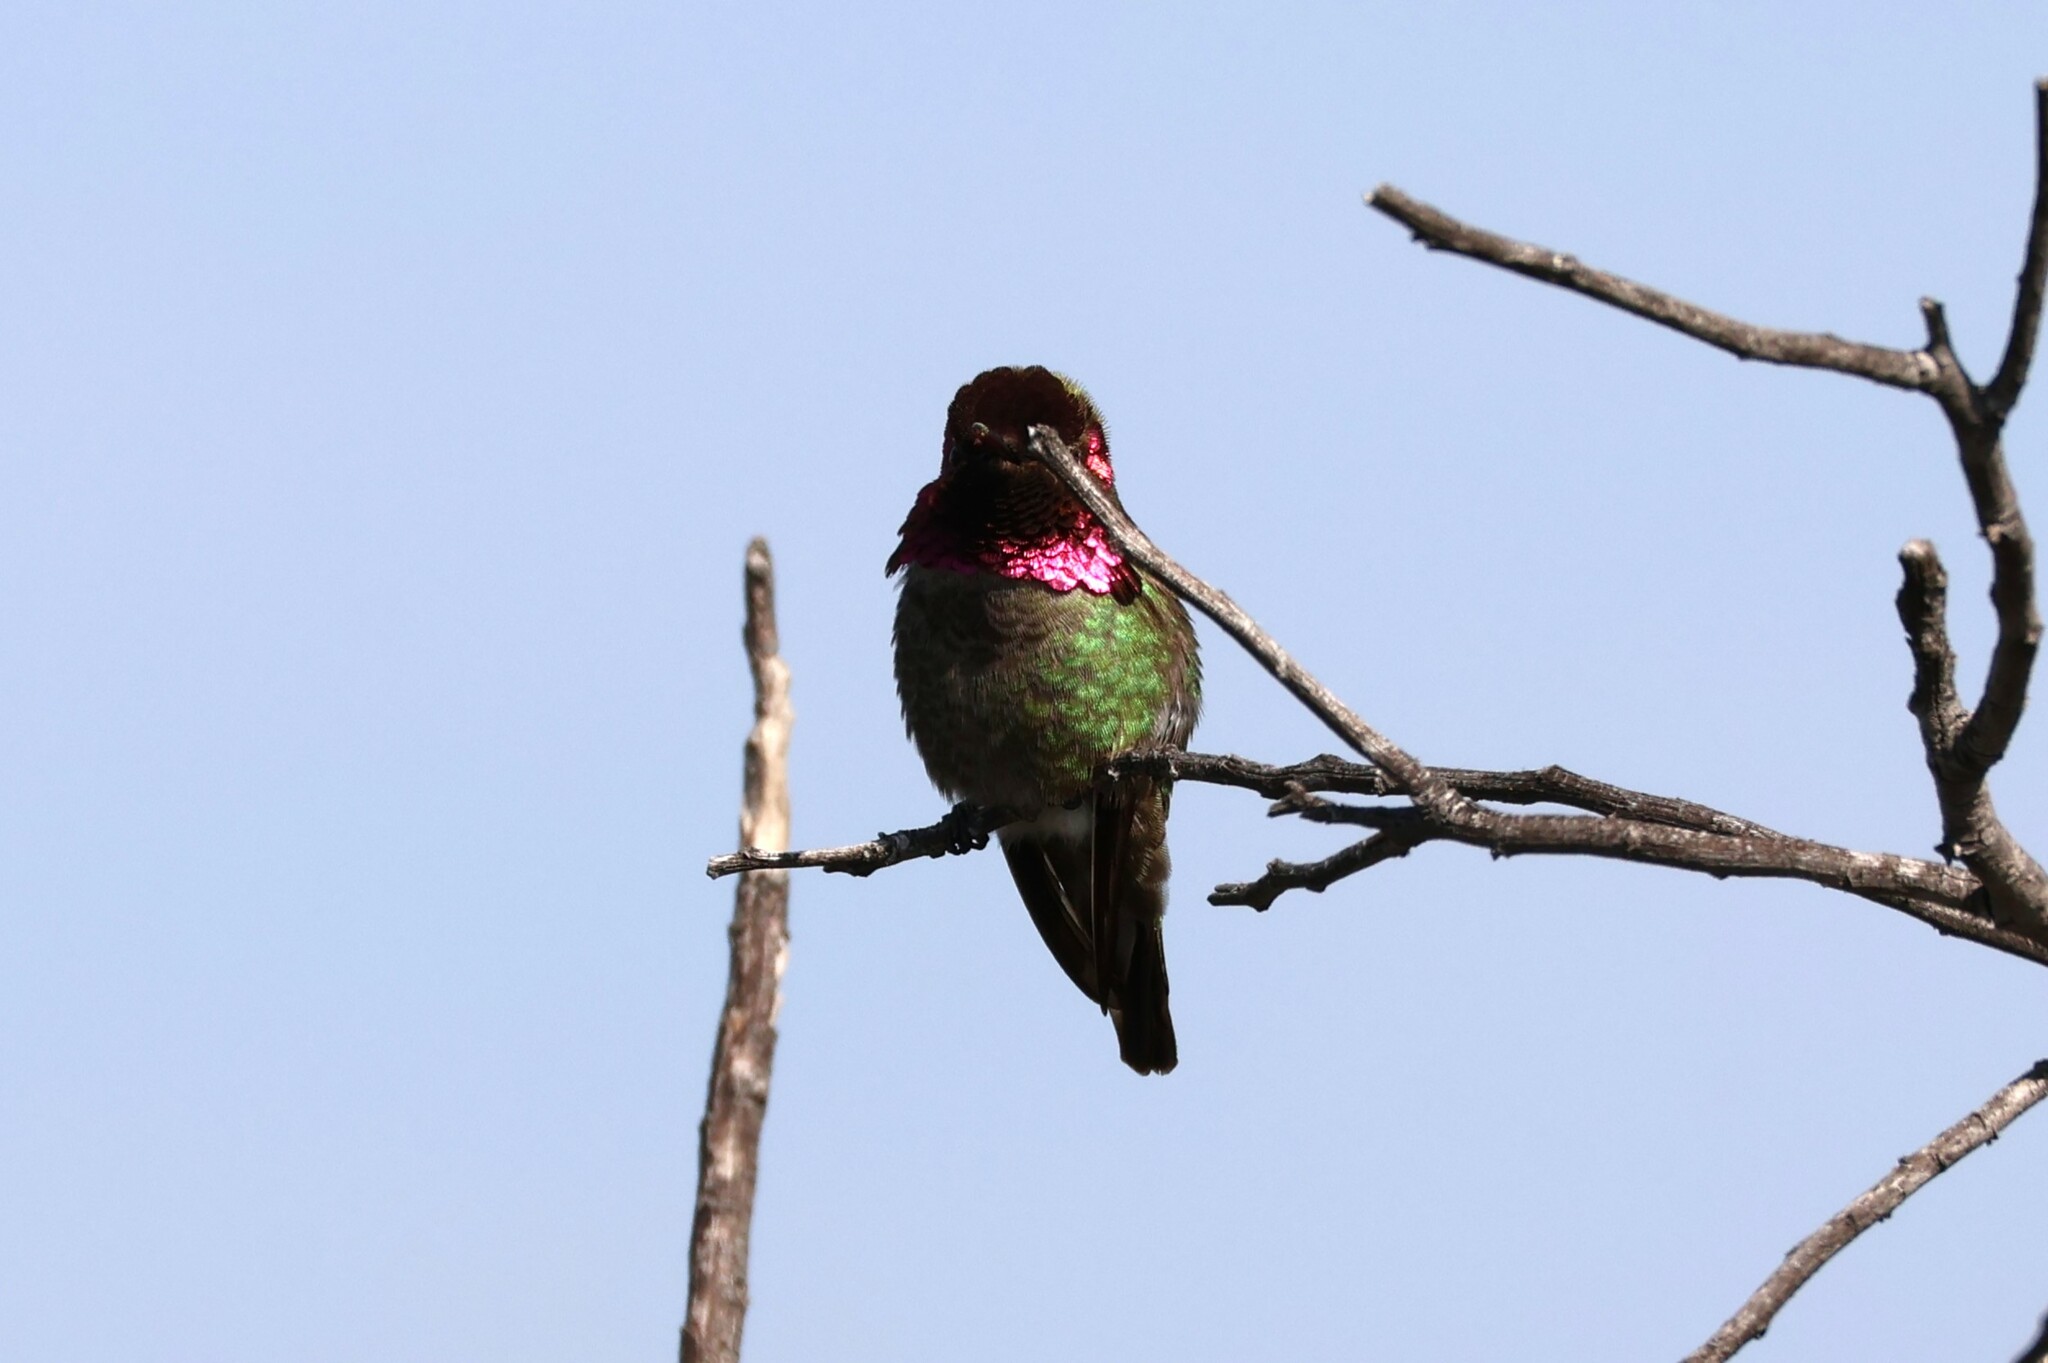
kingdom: Animalia
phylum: Chordata
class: Aves
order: Apodiformes
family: Trochilidae
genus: Calypte
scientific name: Calypte anna
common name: Anna's hummingbird
